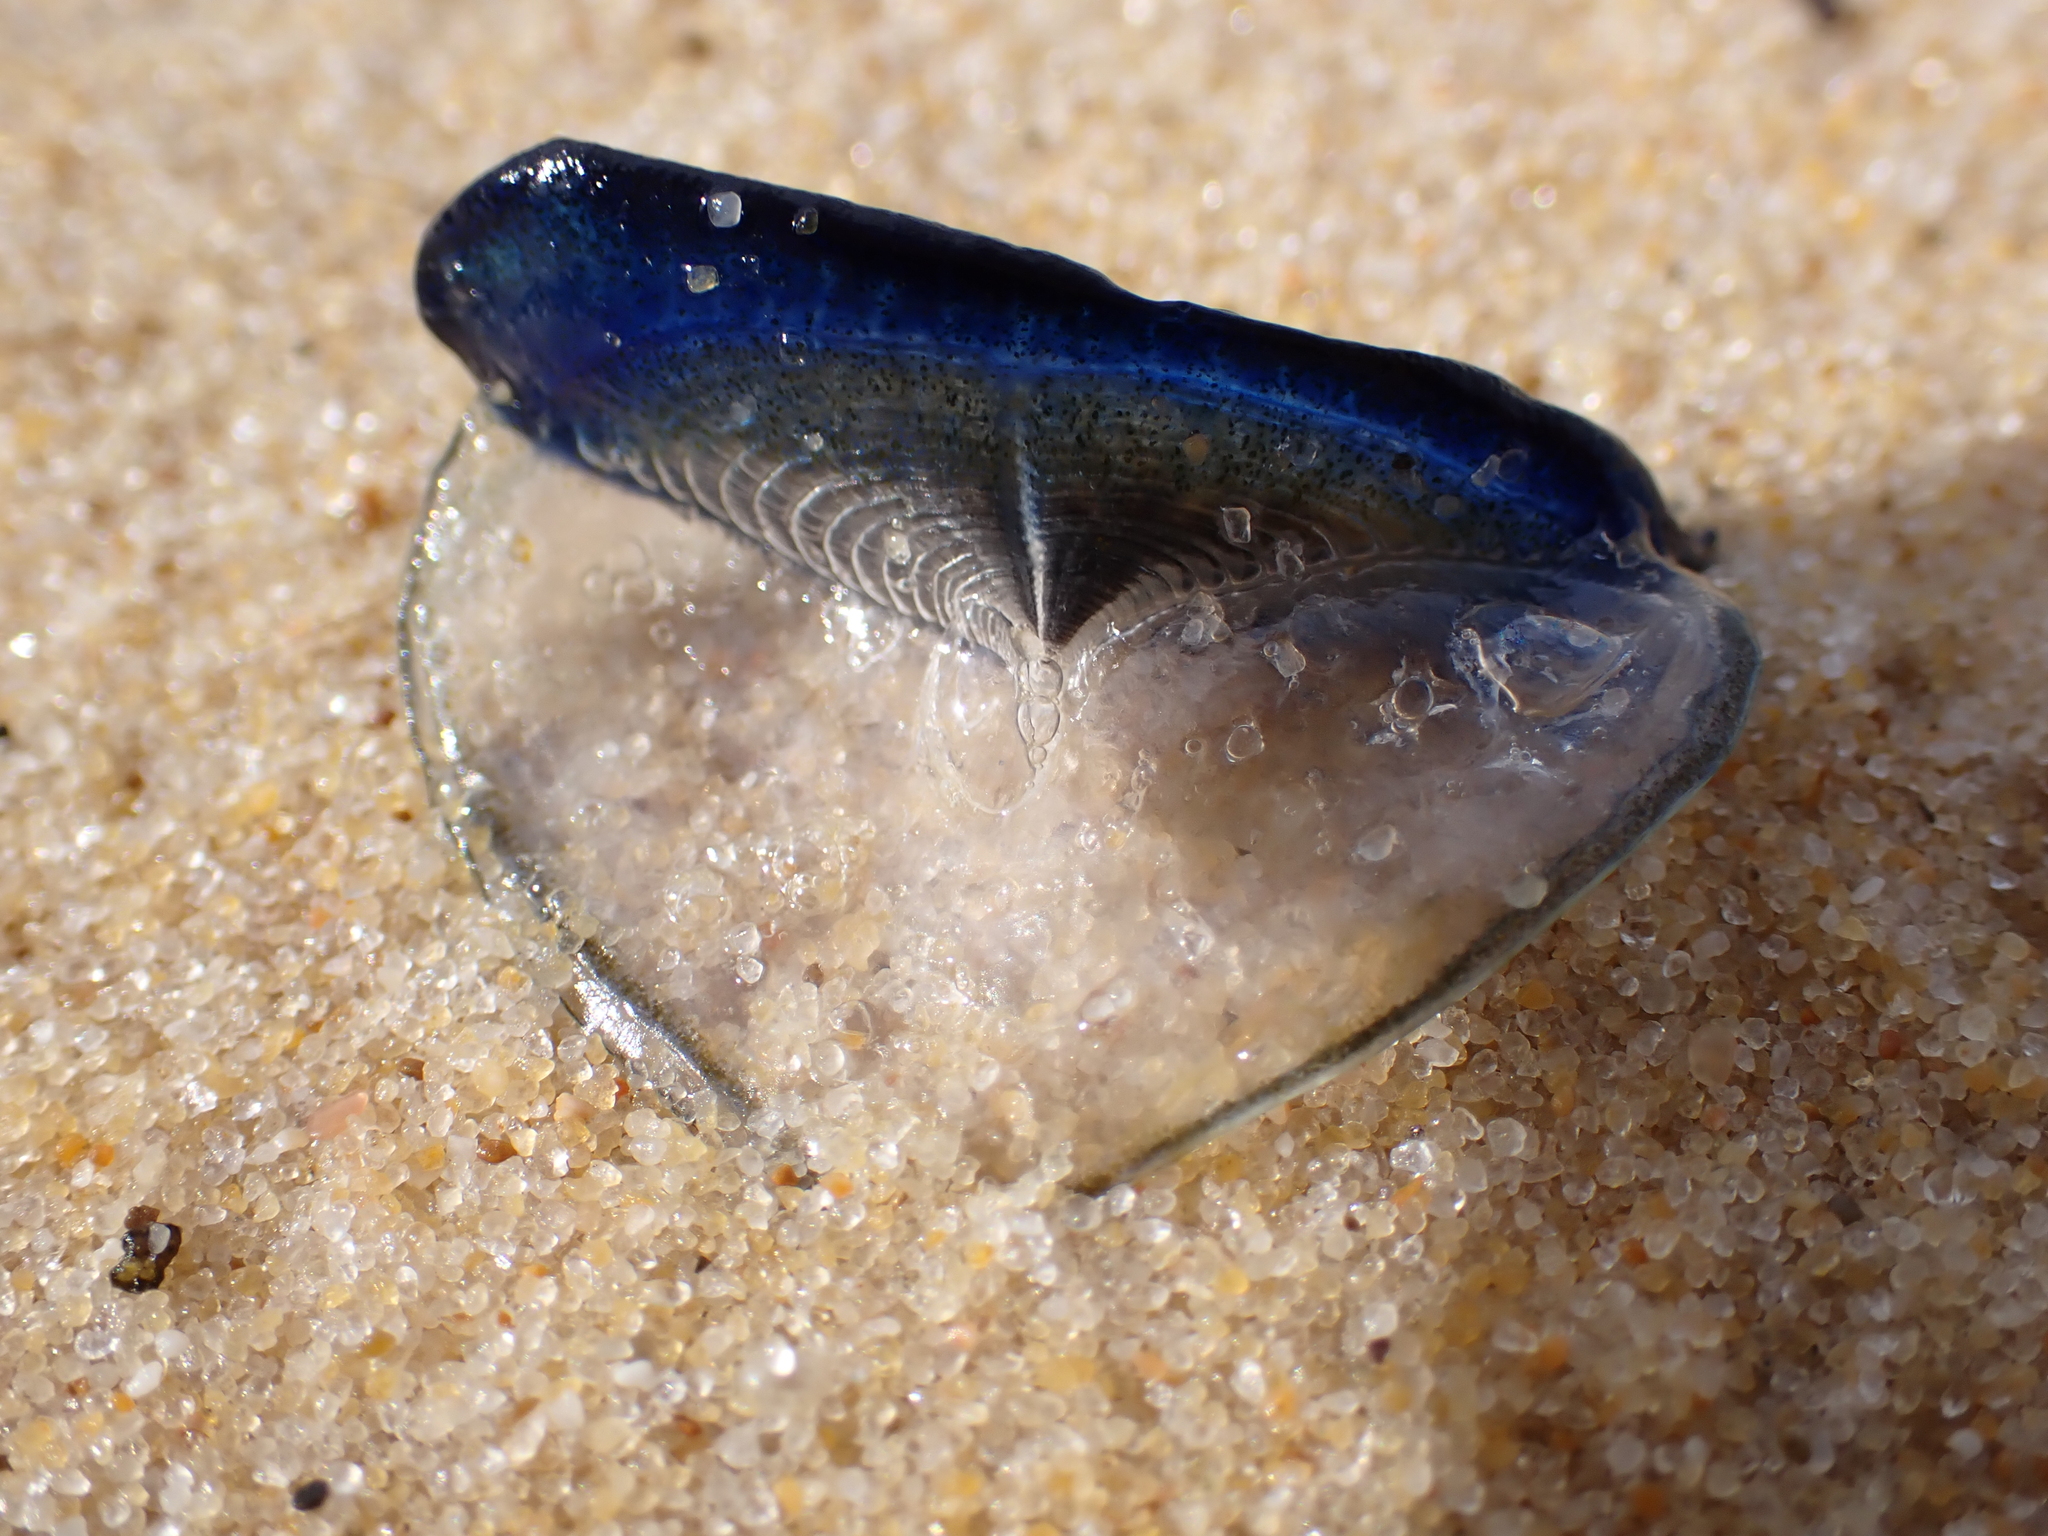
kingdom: Animalia
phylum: Cnidaria
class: Hydrozoa
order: Anthoathecata
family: Porpitidae
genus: Velella
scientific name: Velella velella
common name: By-the-wind-sailor
